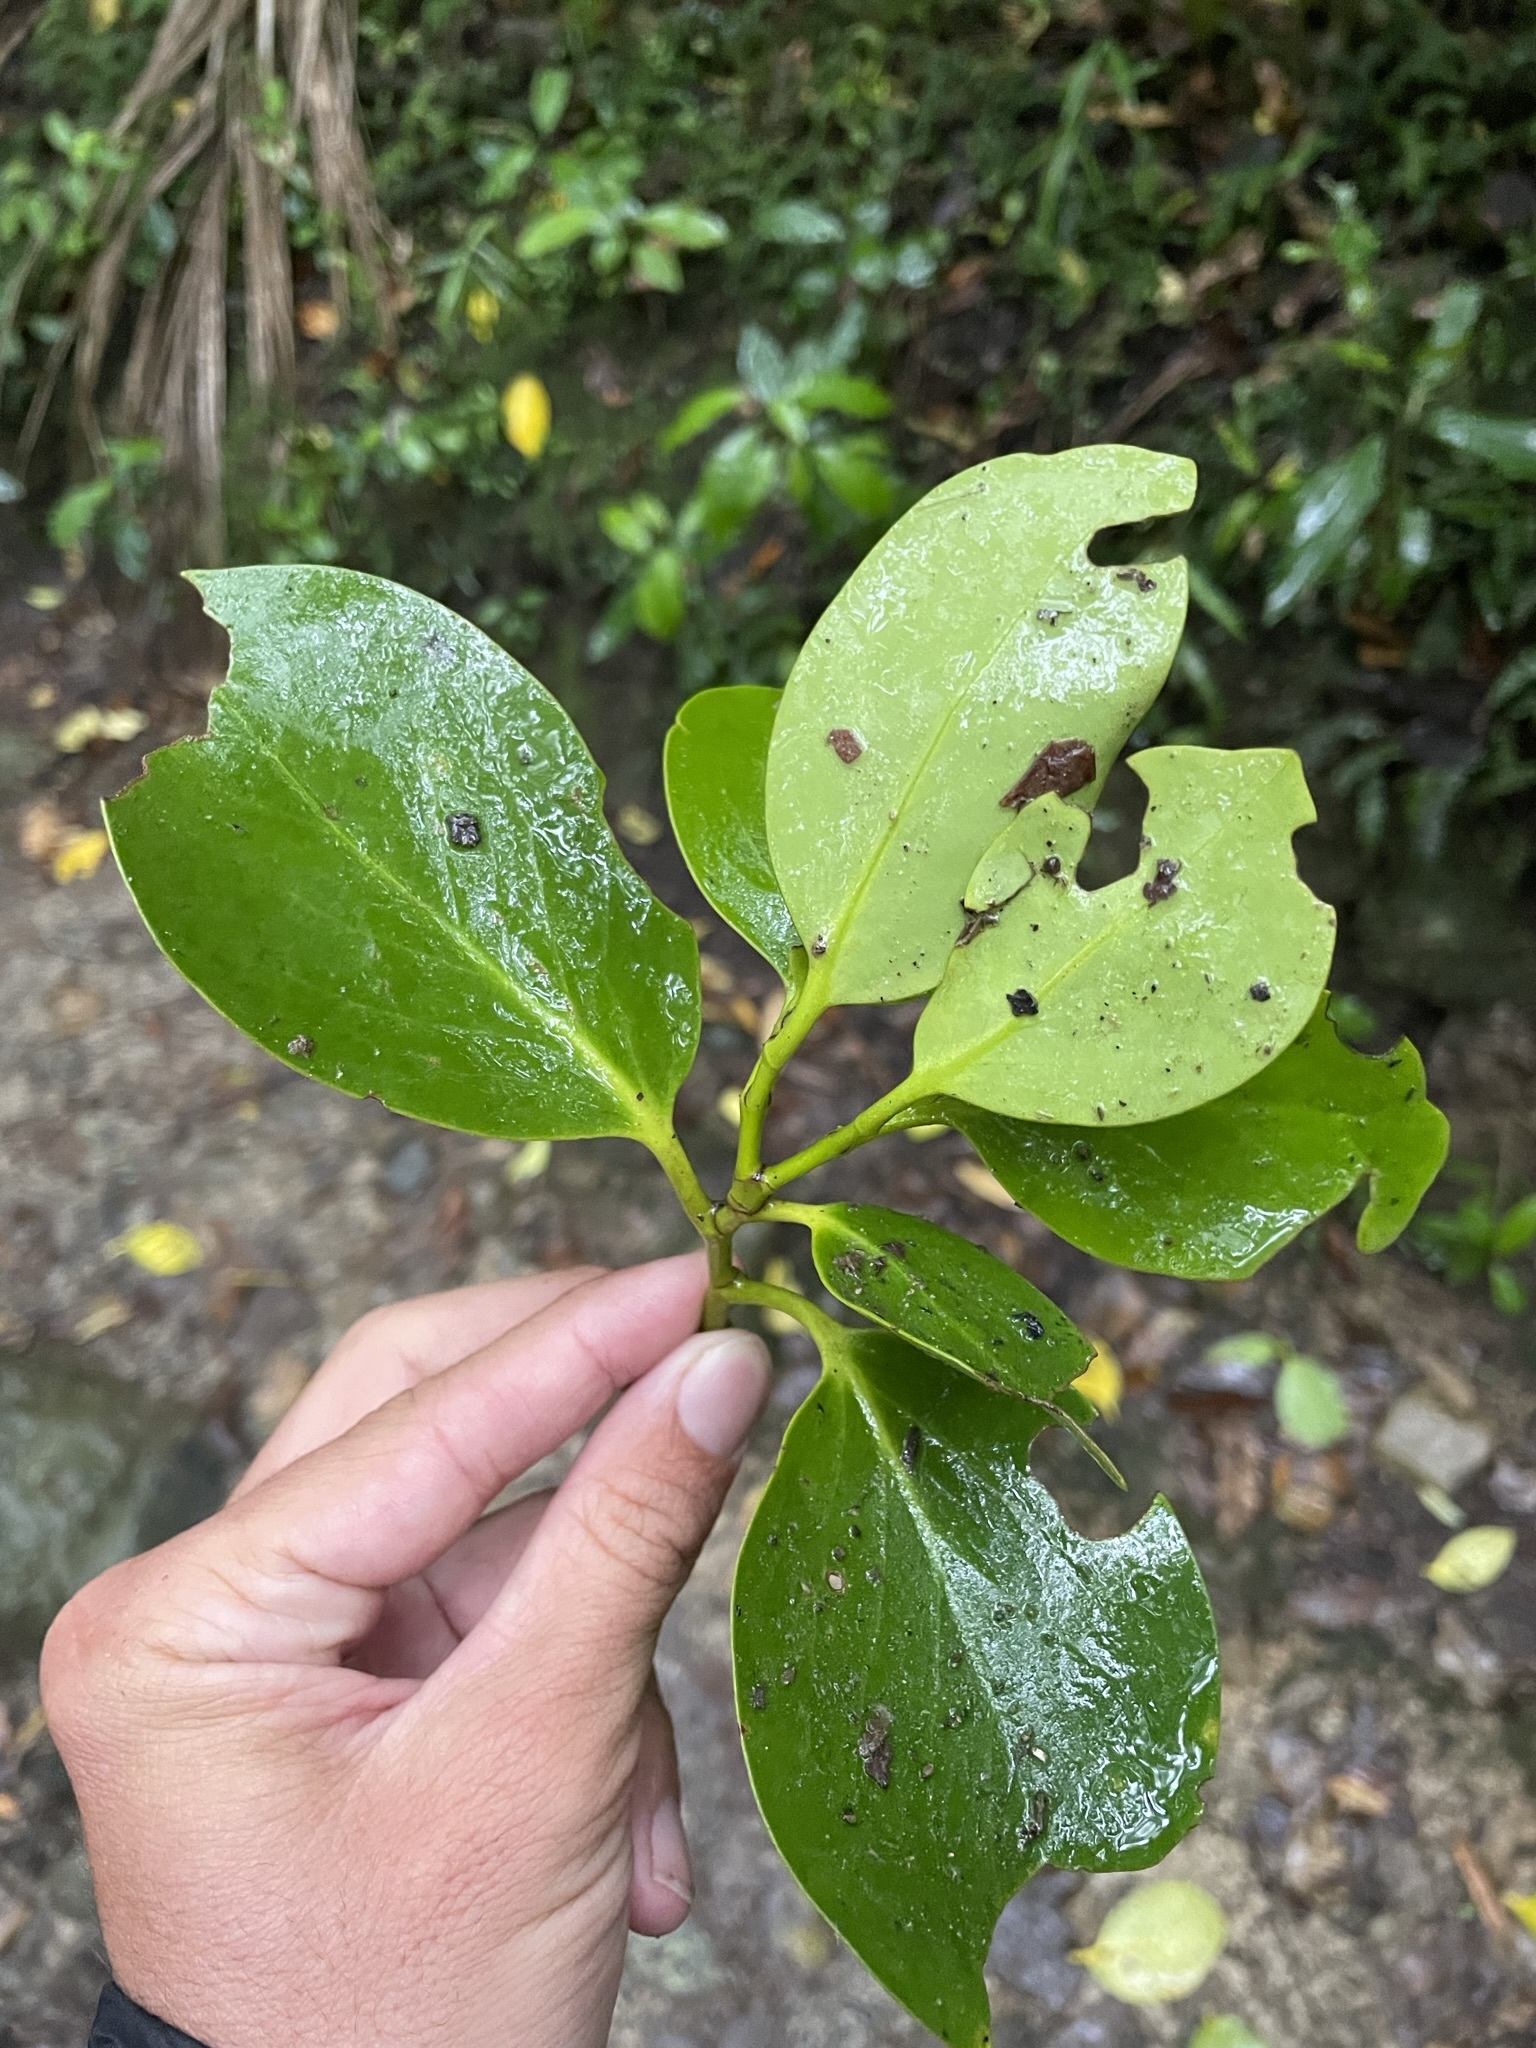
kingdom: Plantae
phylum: Tracheophyta
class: Magnoliopsida
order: Apiales
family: Griseliniaceae
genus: Griselinia
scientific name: Griselinia lucida
